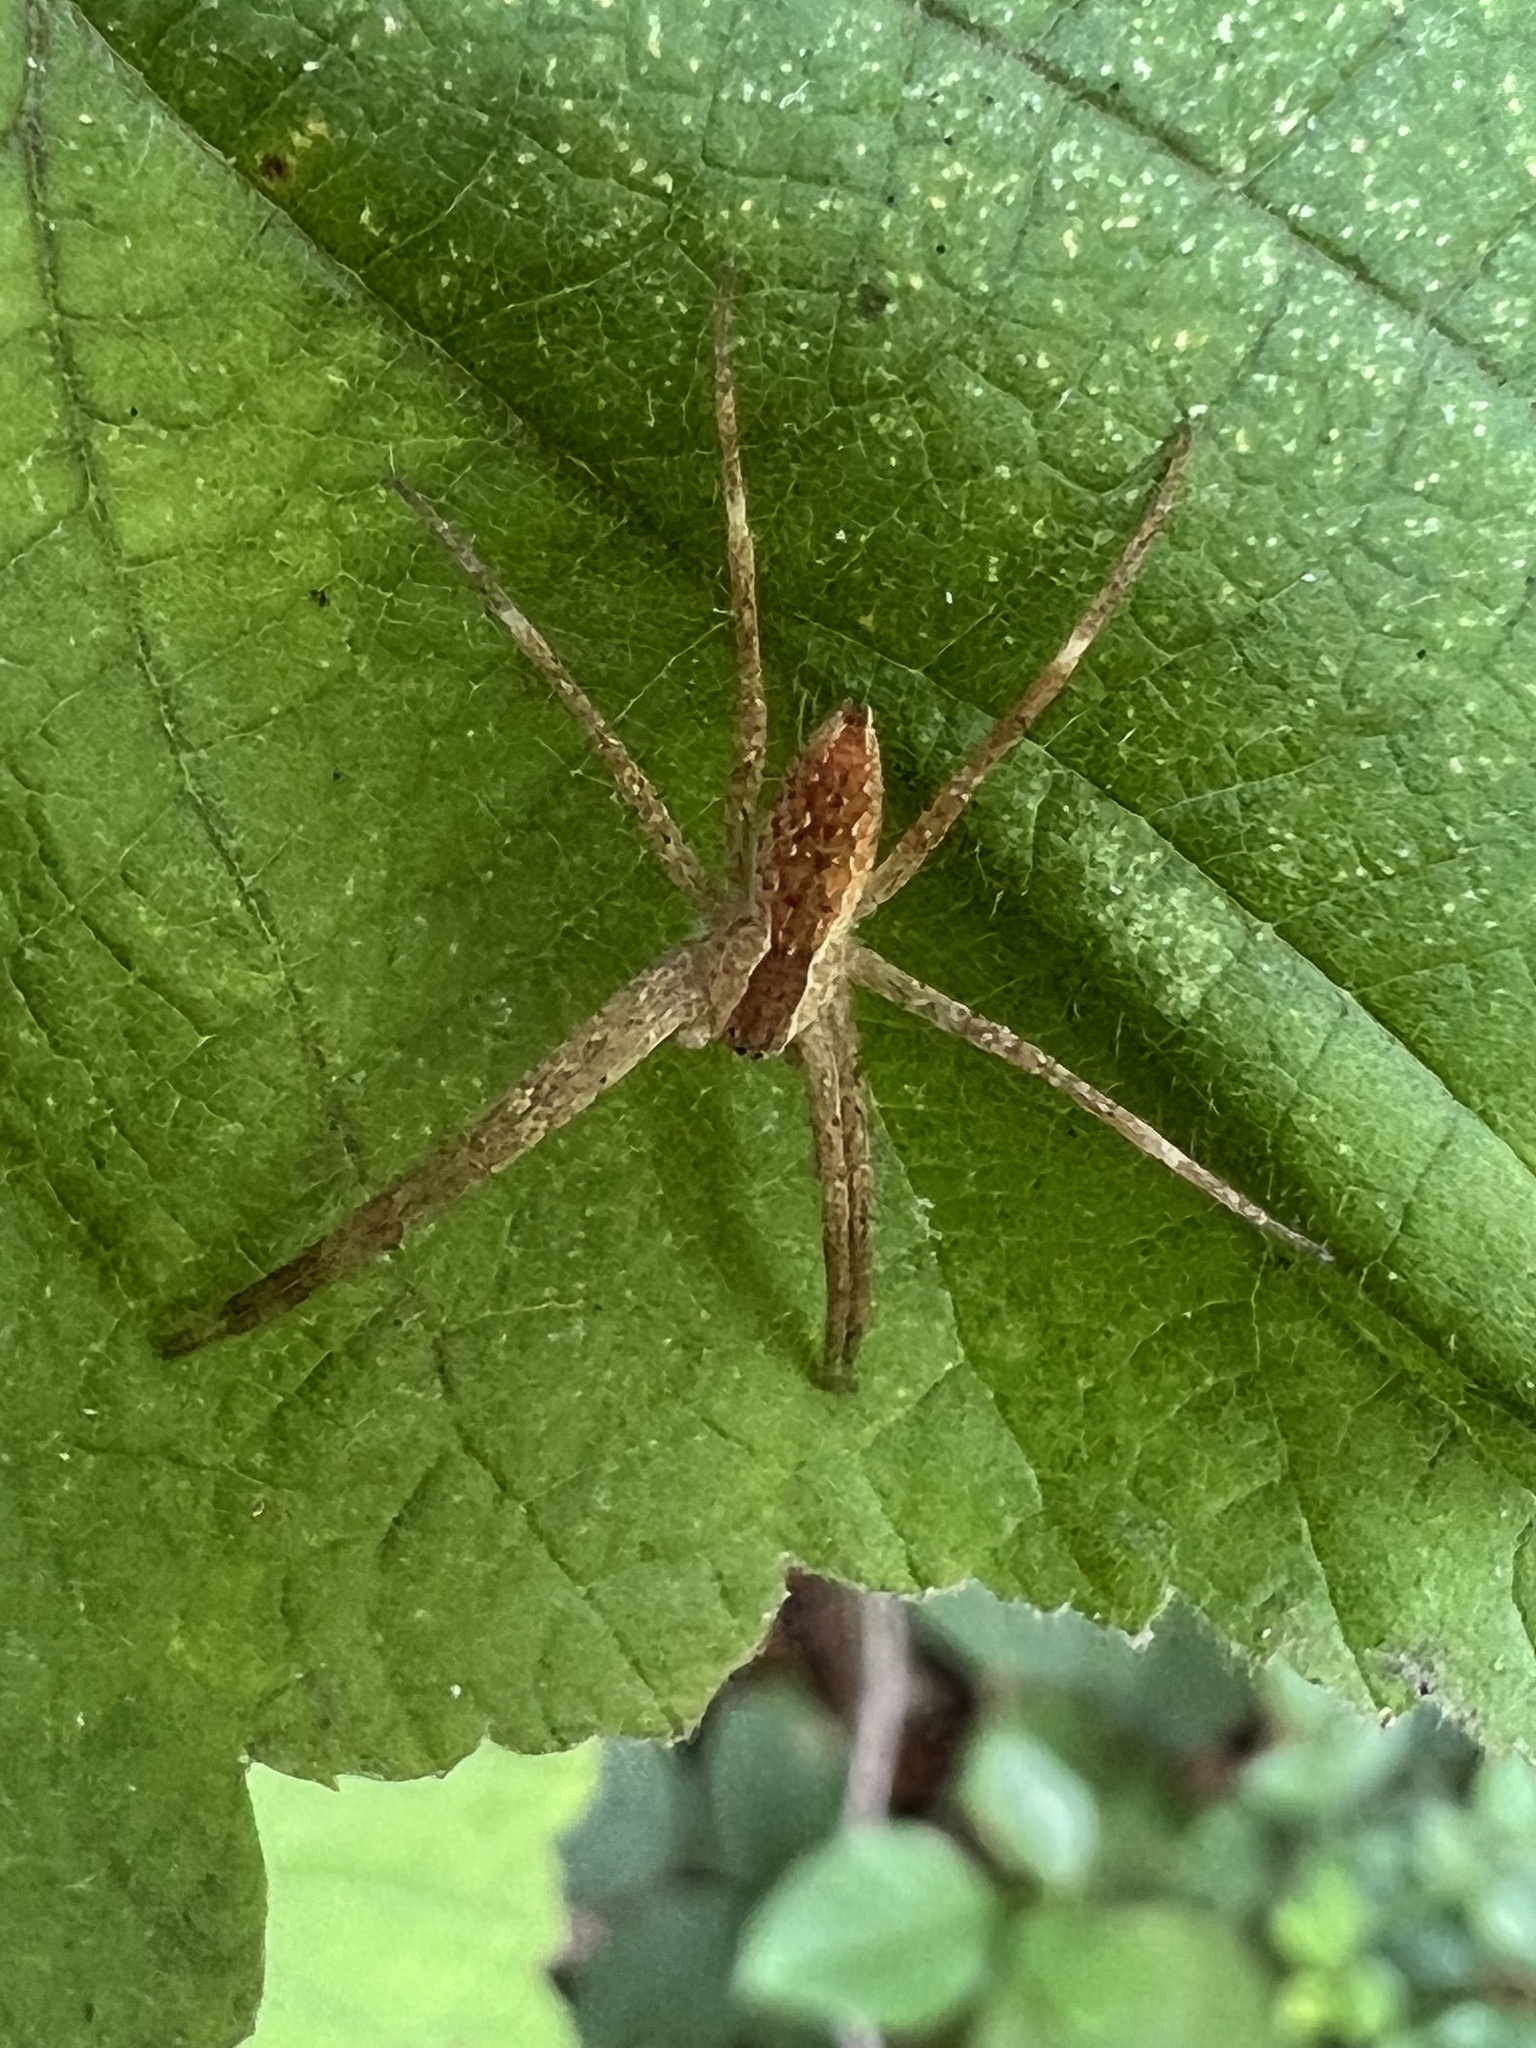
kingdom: Animalia
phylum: Arthropoda
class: Arachnida
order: Araneae
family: Pisauridae
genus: Pisaurina
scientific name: Pisaurina mira
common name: American nursery web spider
